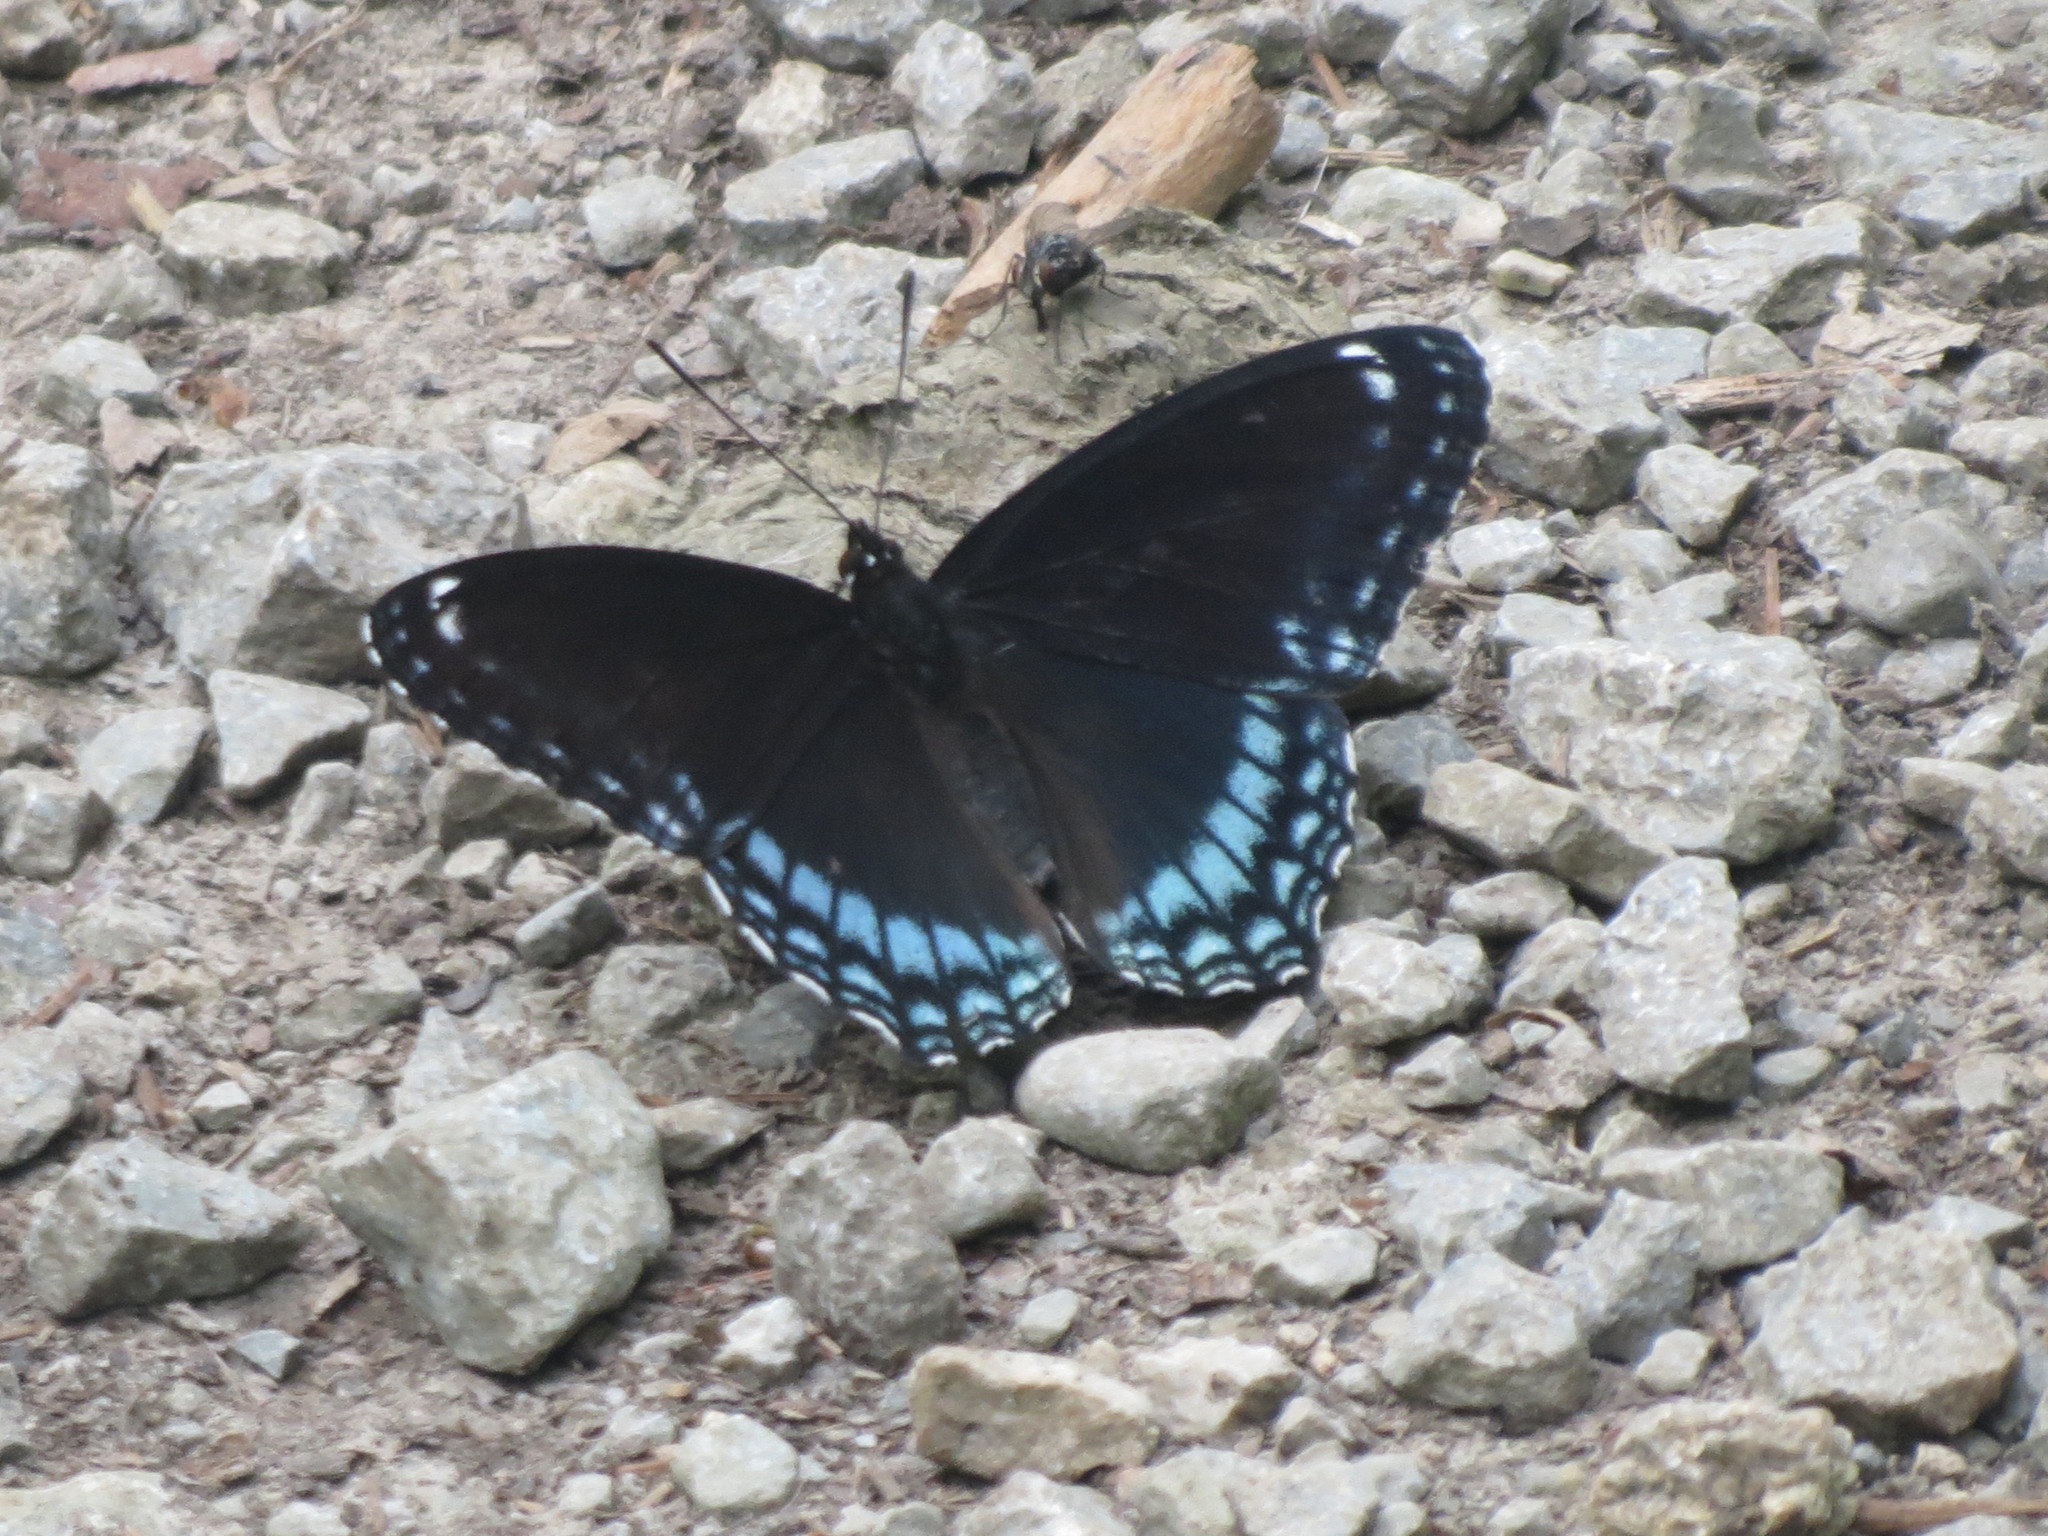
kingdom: Animalia
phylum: Arthropoda
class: Insecta
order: Lepidoptera
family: Nymphalidae
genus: Limenitis
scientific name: Limenitis astyanax
